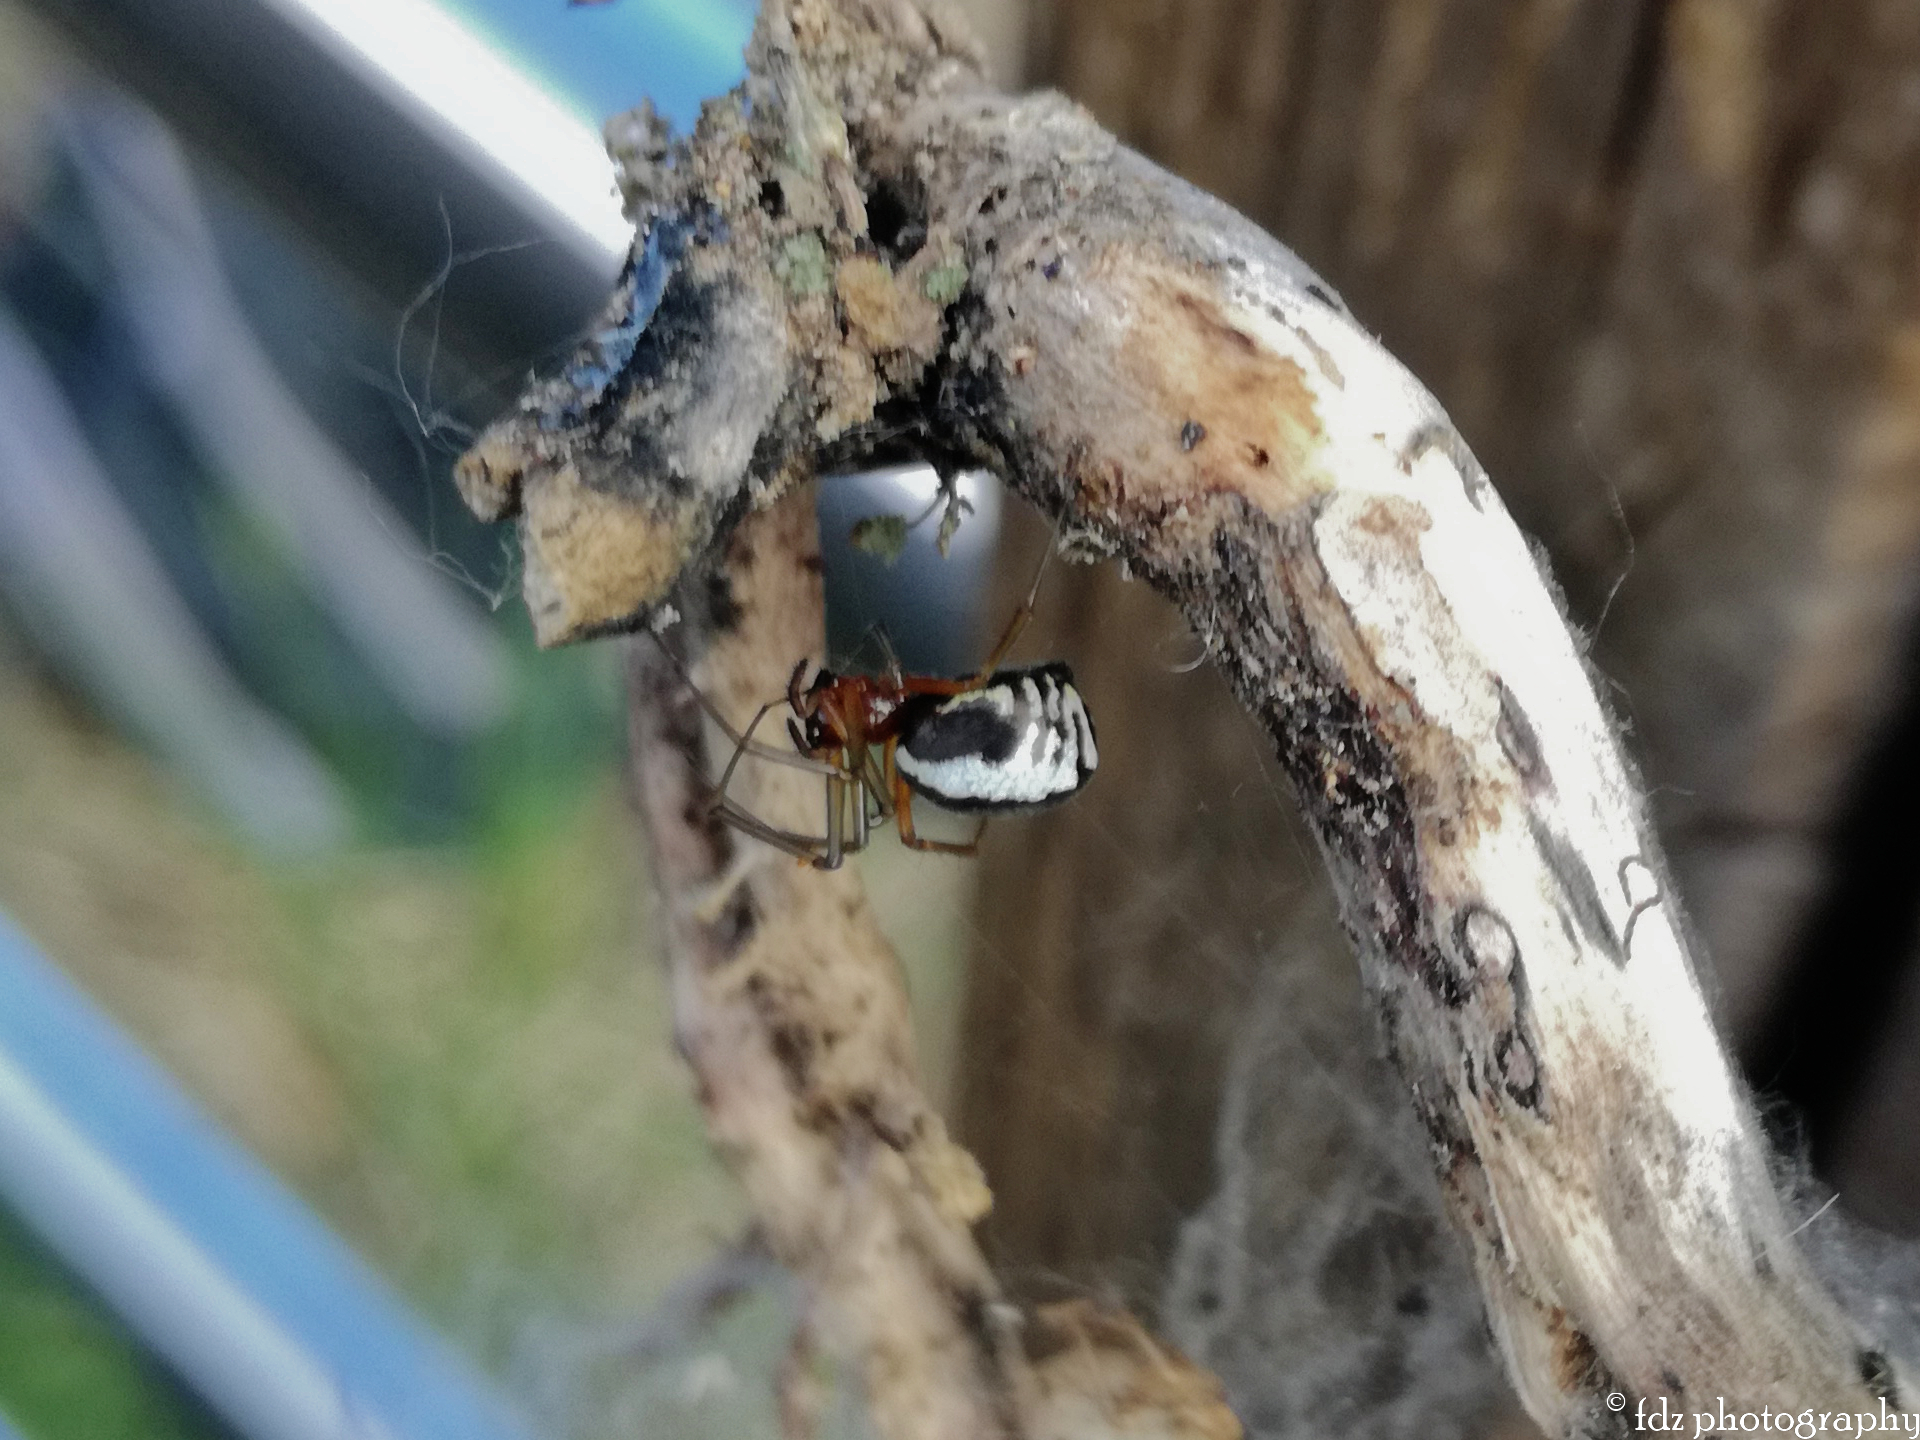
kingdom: Animalia
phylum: Arthropoda
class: Arachnida
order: Araneae
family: Linyphiidae
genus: Frontinellina
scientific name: Frontinellina frutetorum
